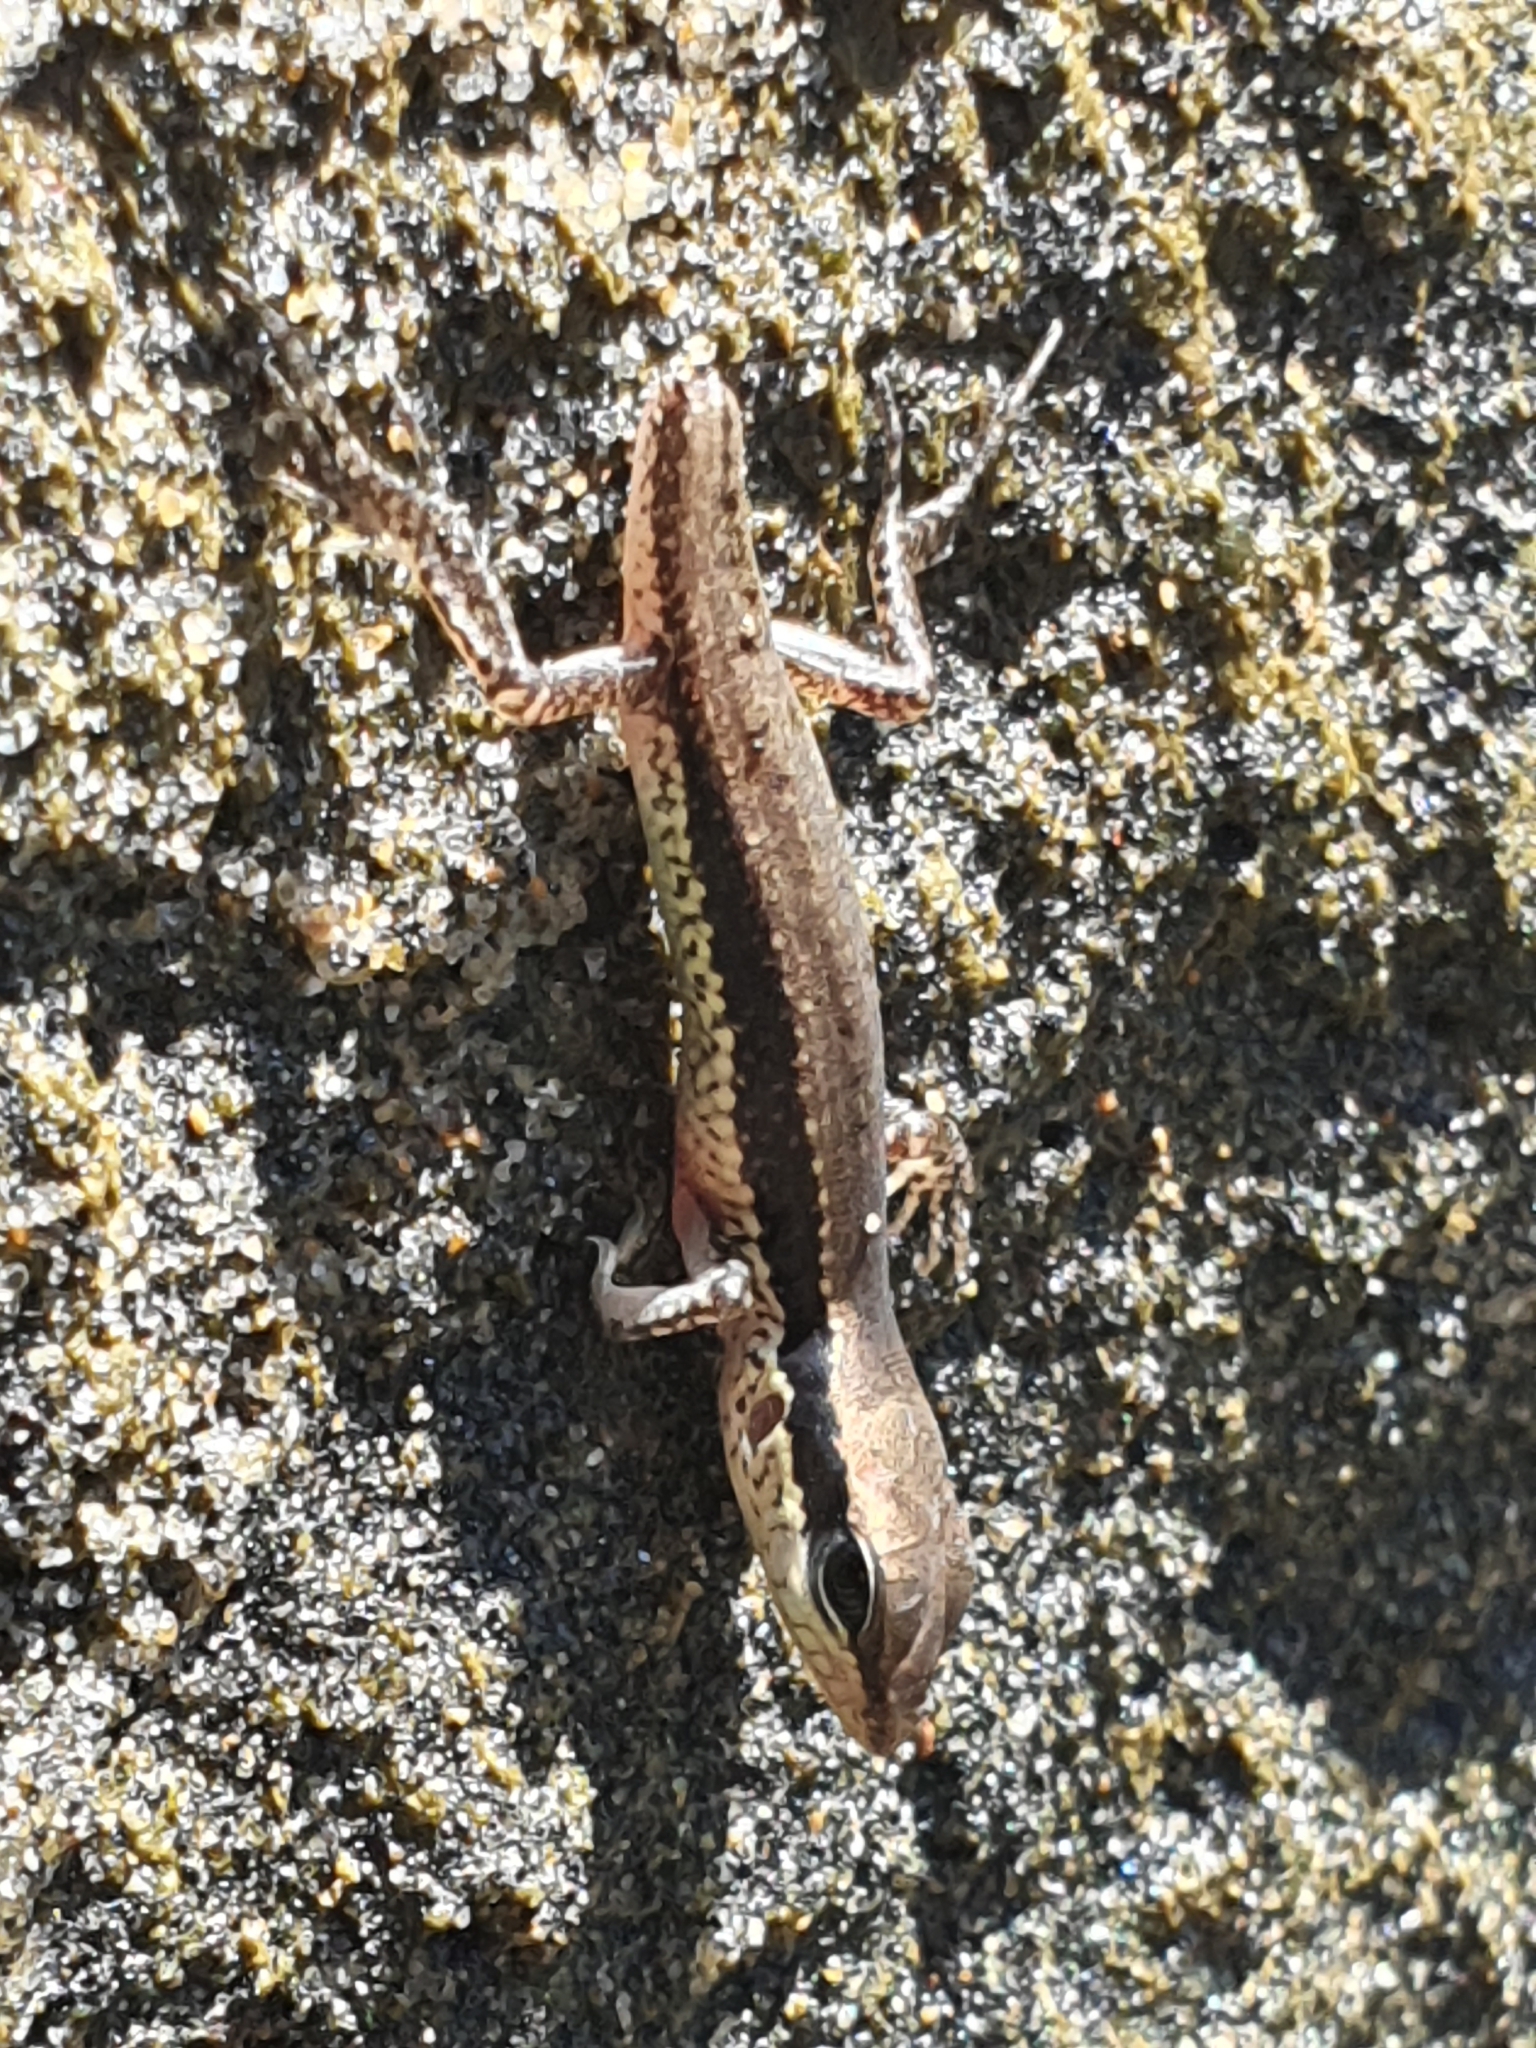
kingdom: Animalia
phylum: Chordata
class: Squamata
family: Scincidae
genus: Sphenomorphus
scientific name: Sphenomorphus maculatus
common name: Maculated forest skink
